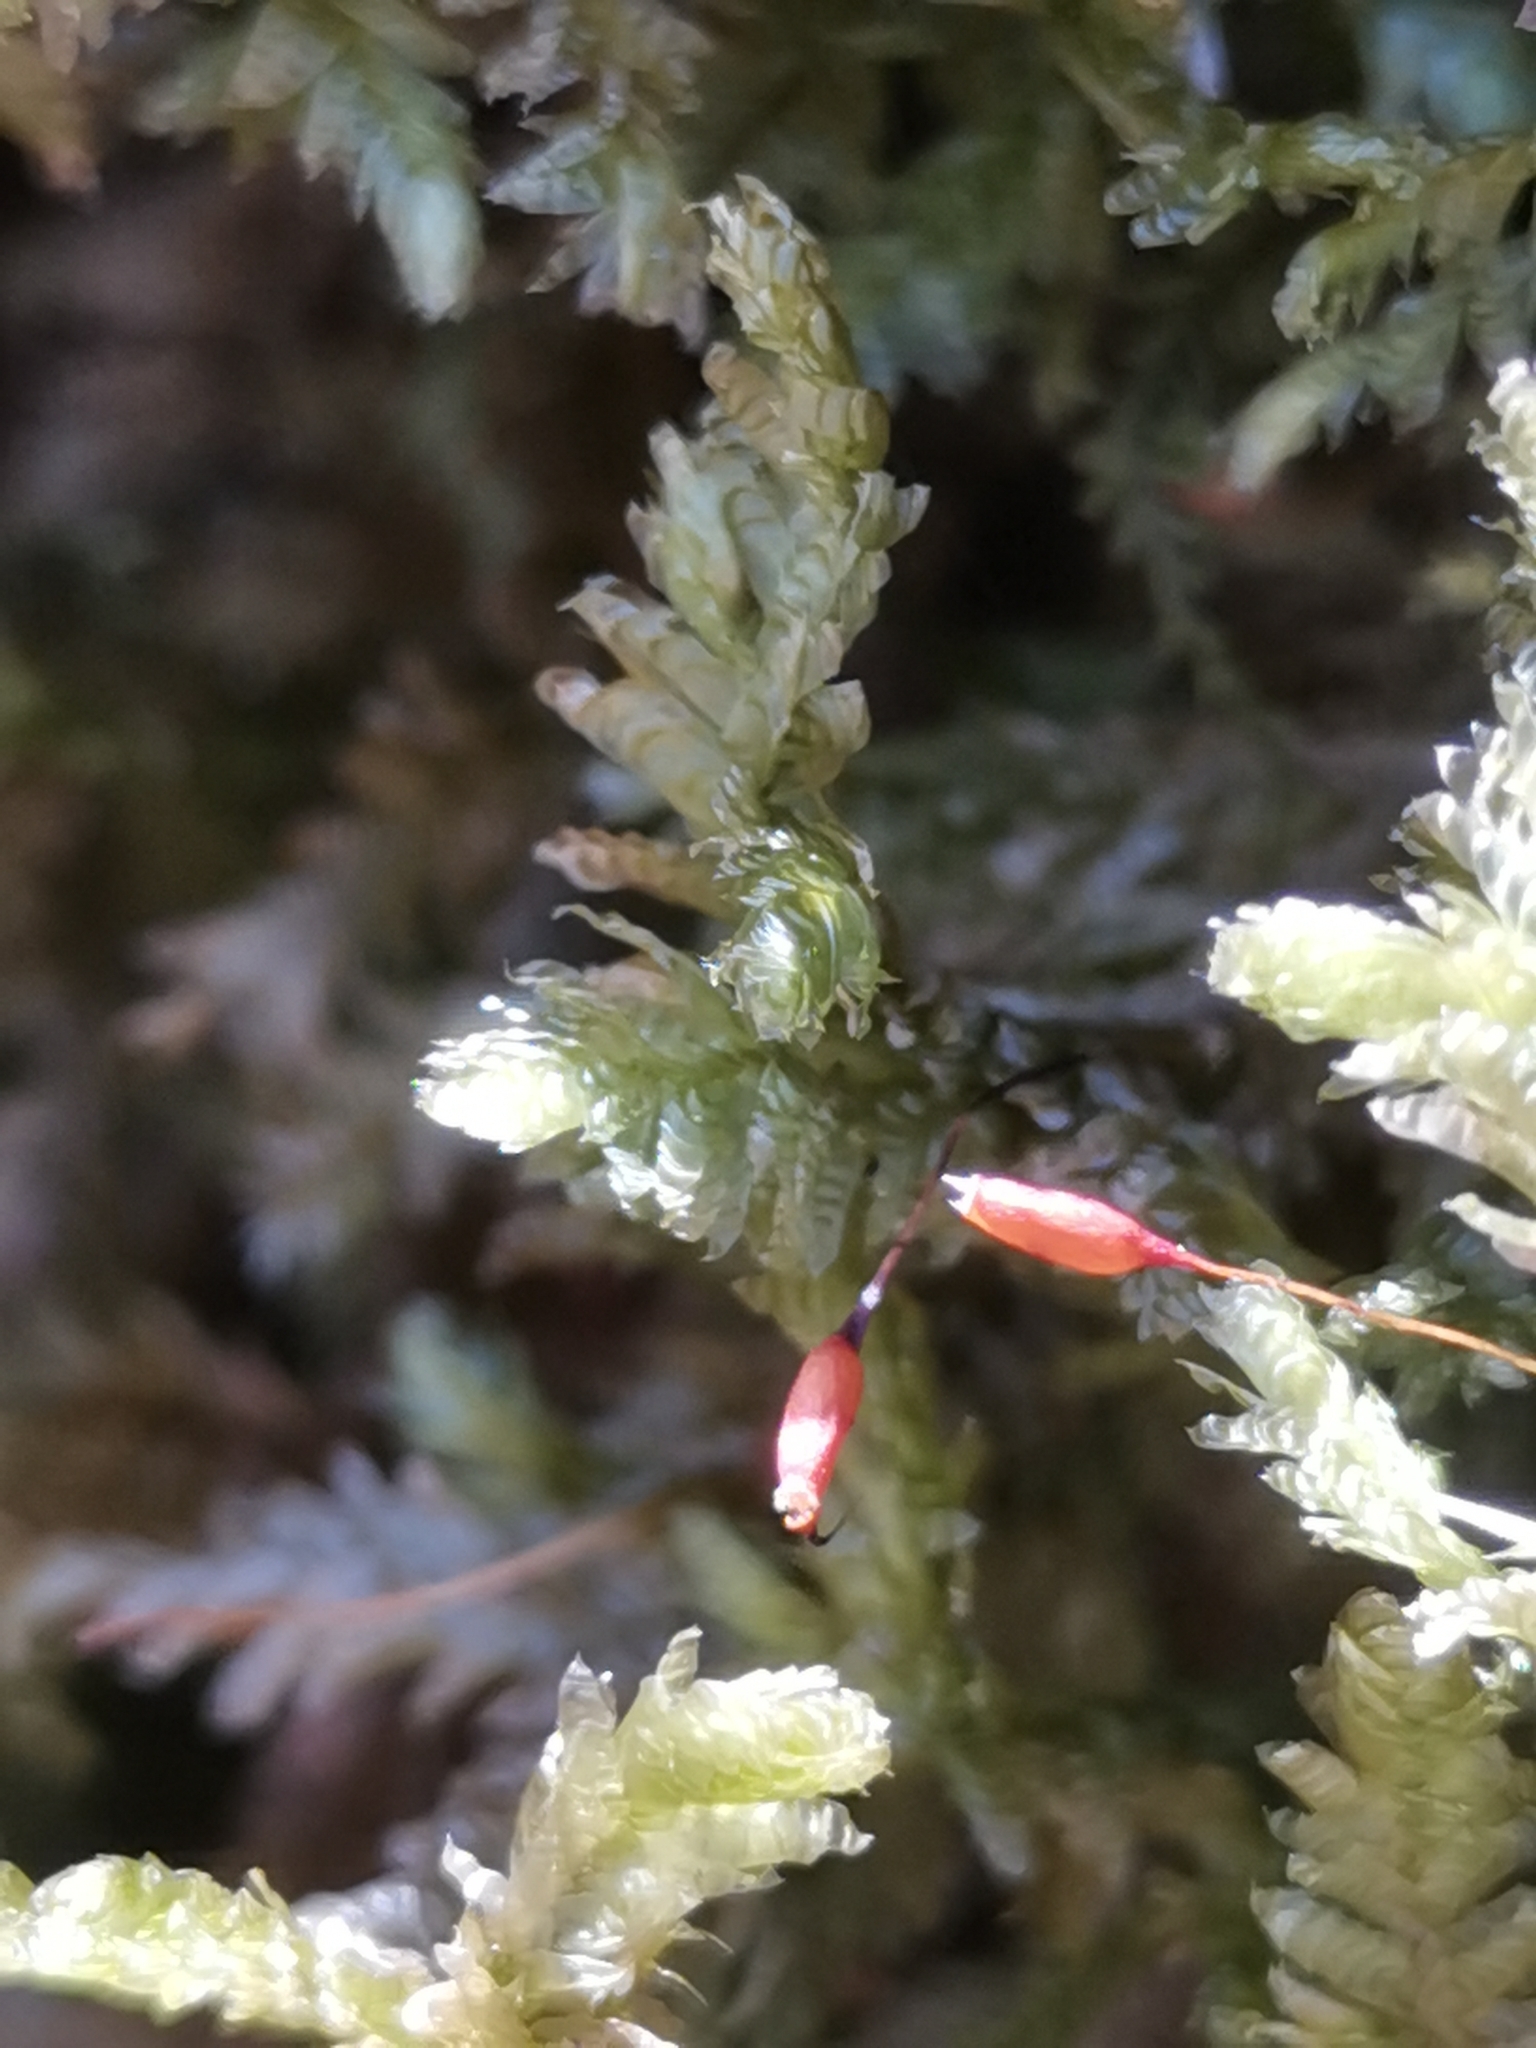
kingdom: Plantae
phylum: Bryophyta
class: Bryopsida
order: Hypnales
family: Neckeraceae
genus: Exsertotheca
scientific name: Exsertotheca crispa
